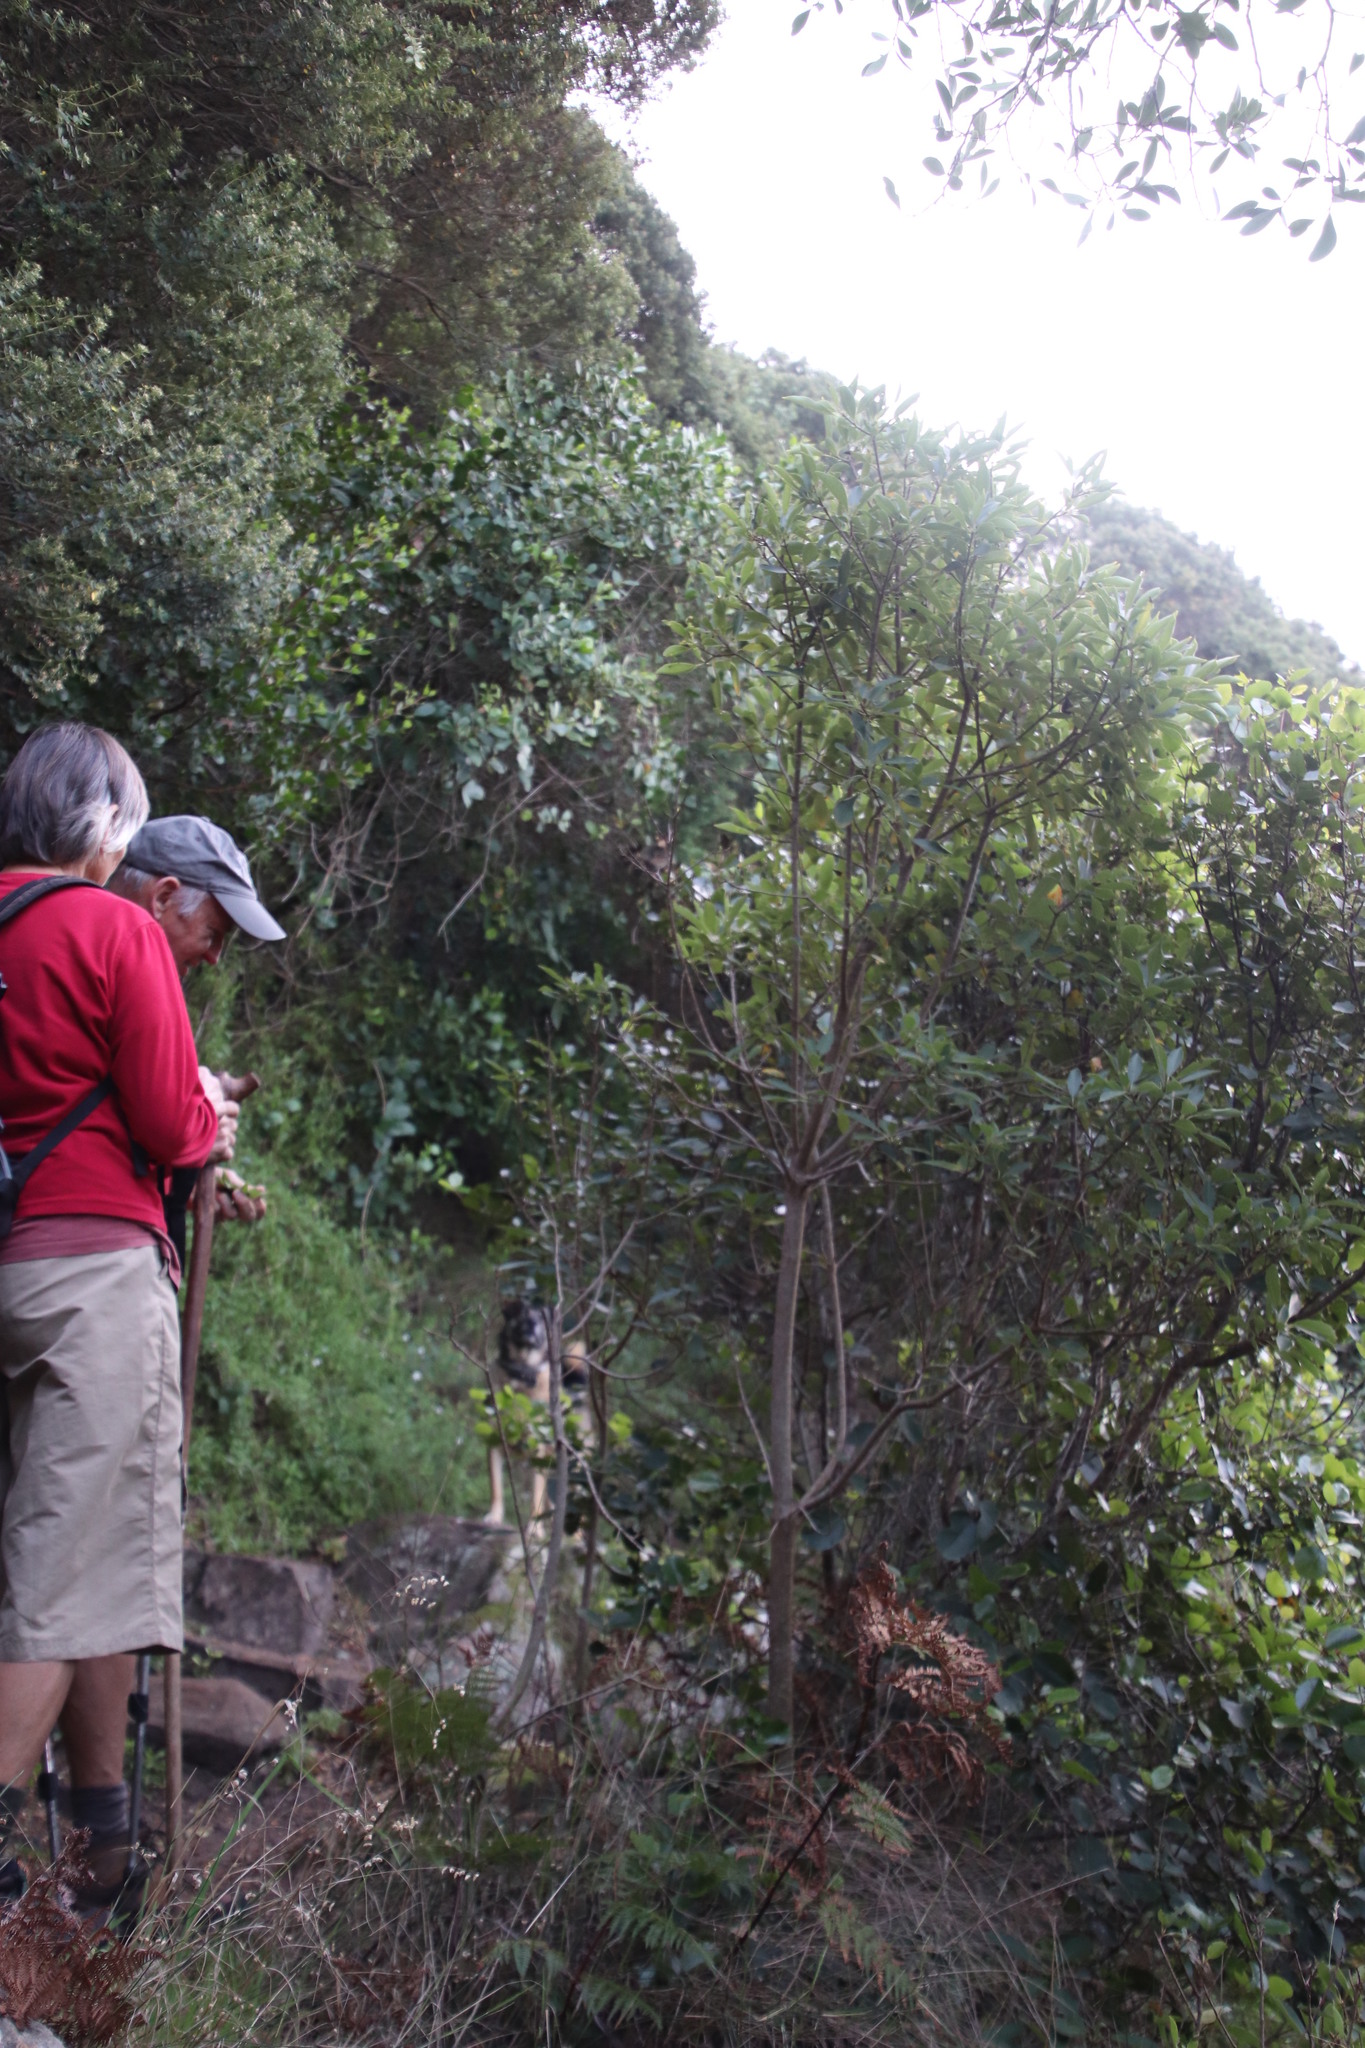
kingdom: Plantae
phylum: Tracheophyta
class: Magnoliopsida
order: Malpighiales
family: Achariaceae
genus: Kiggelaria
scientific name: Kiggelaria africana
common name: Wild peach
